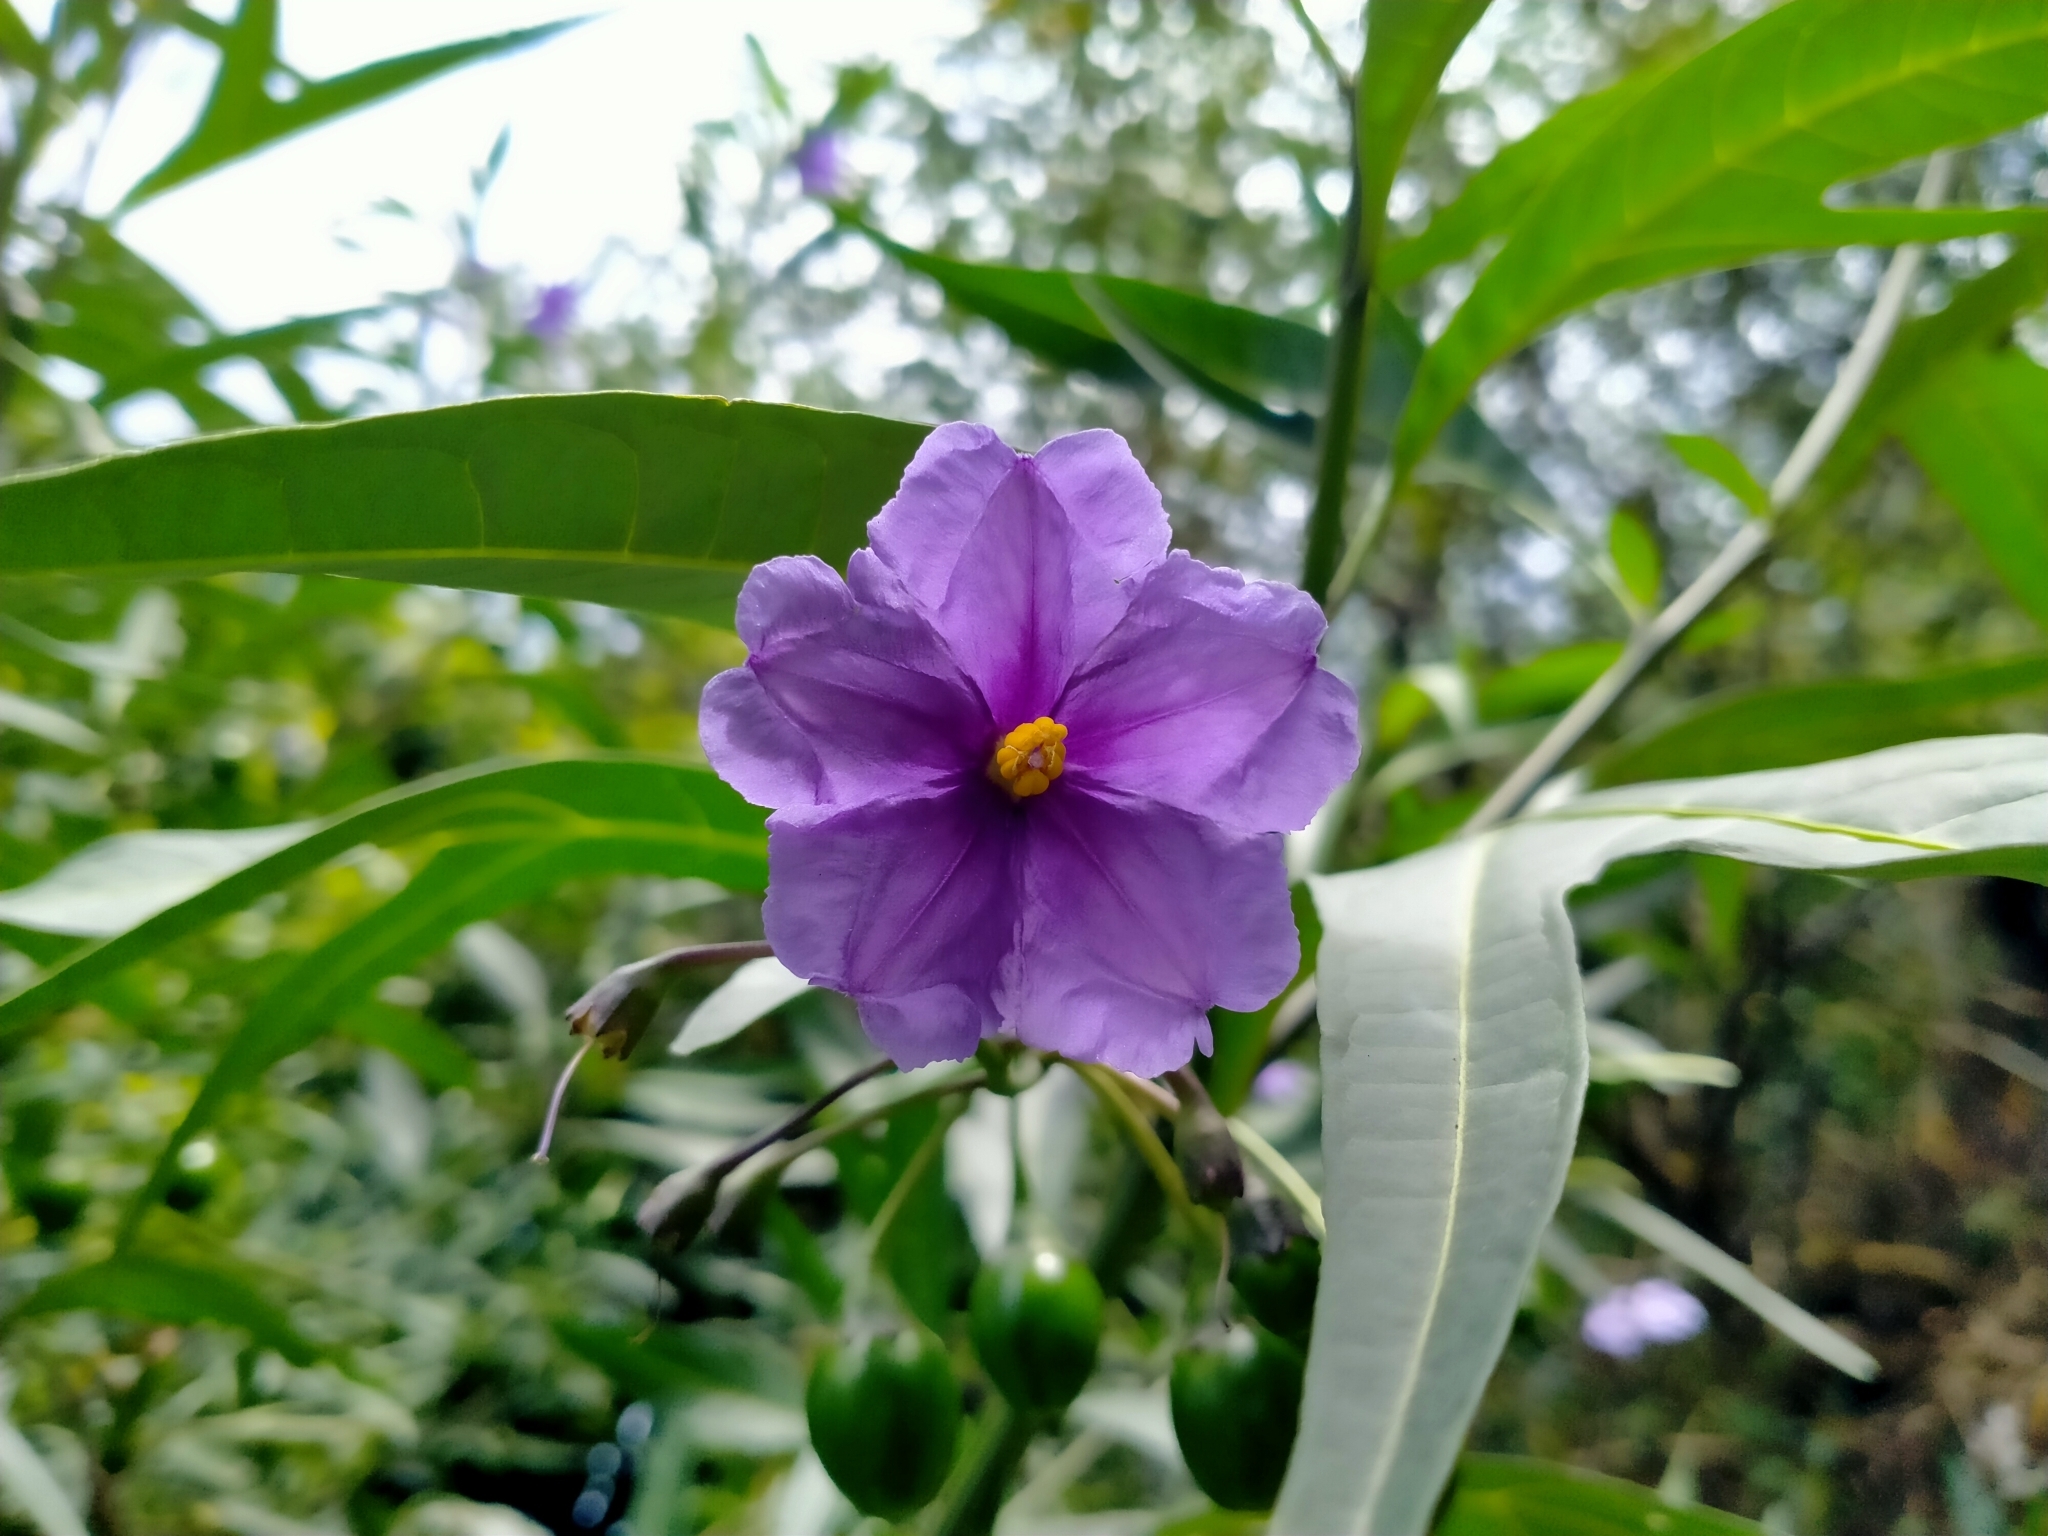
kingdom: Plantae
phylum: Tracheophyta
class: Magnoliopsida
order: Solanales
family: Solanaceae
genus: Solanum
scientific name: Solanum laciniatum
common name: Kangaroo-apple
